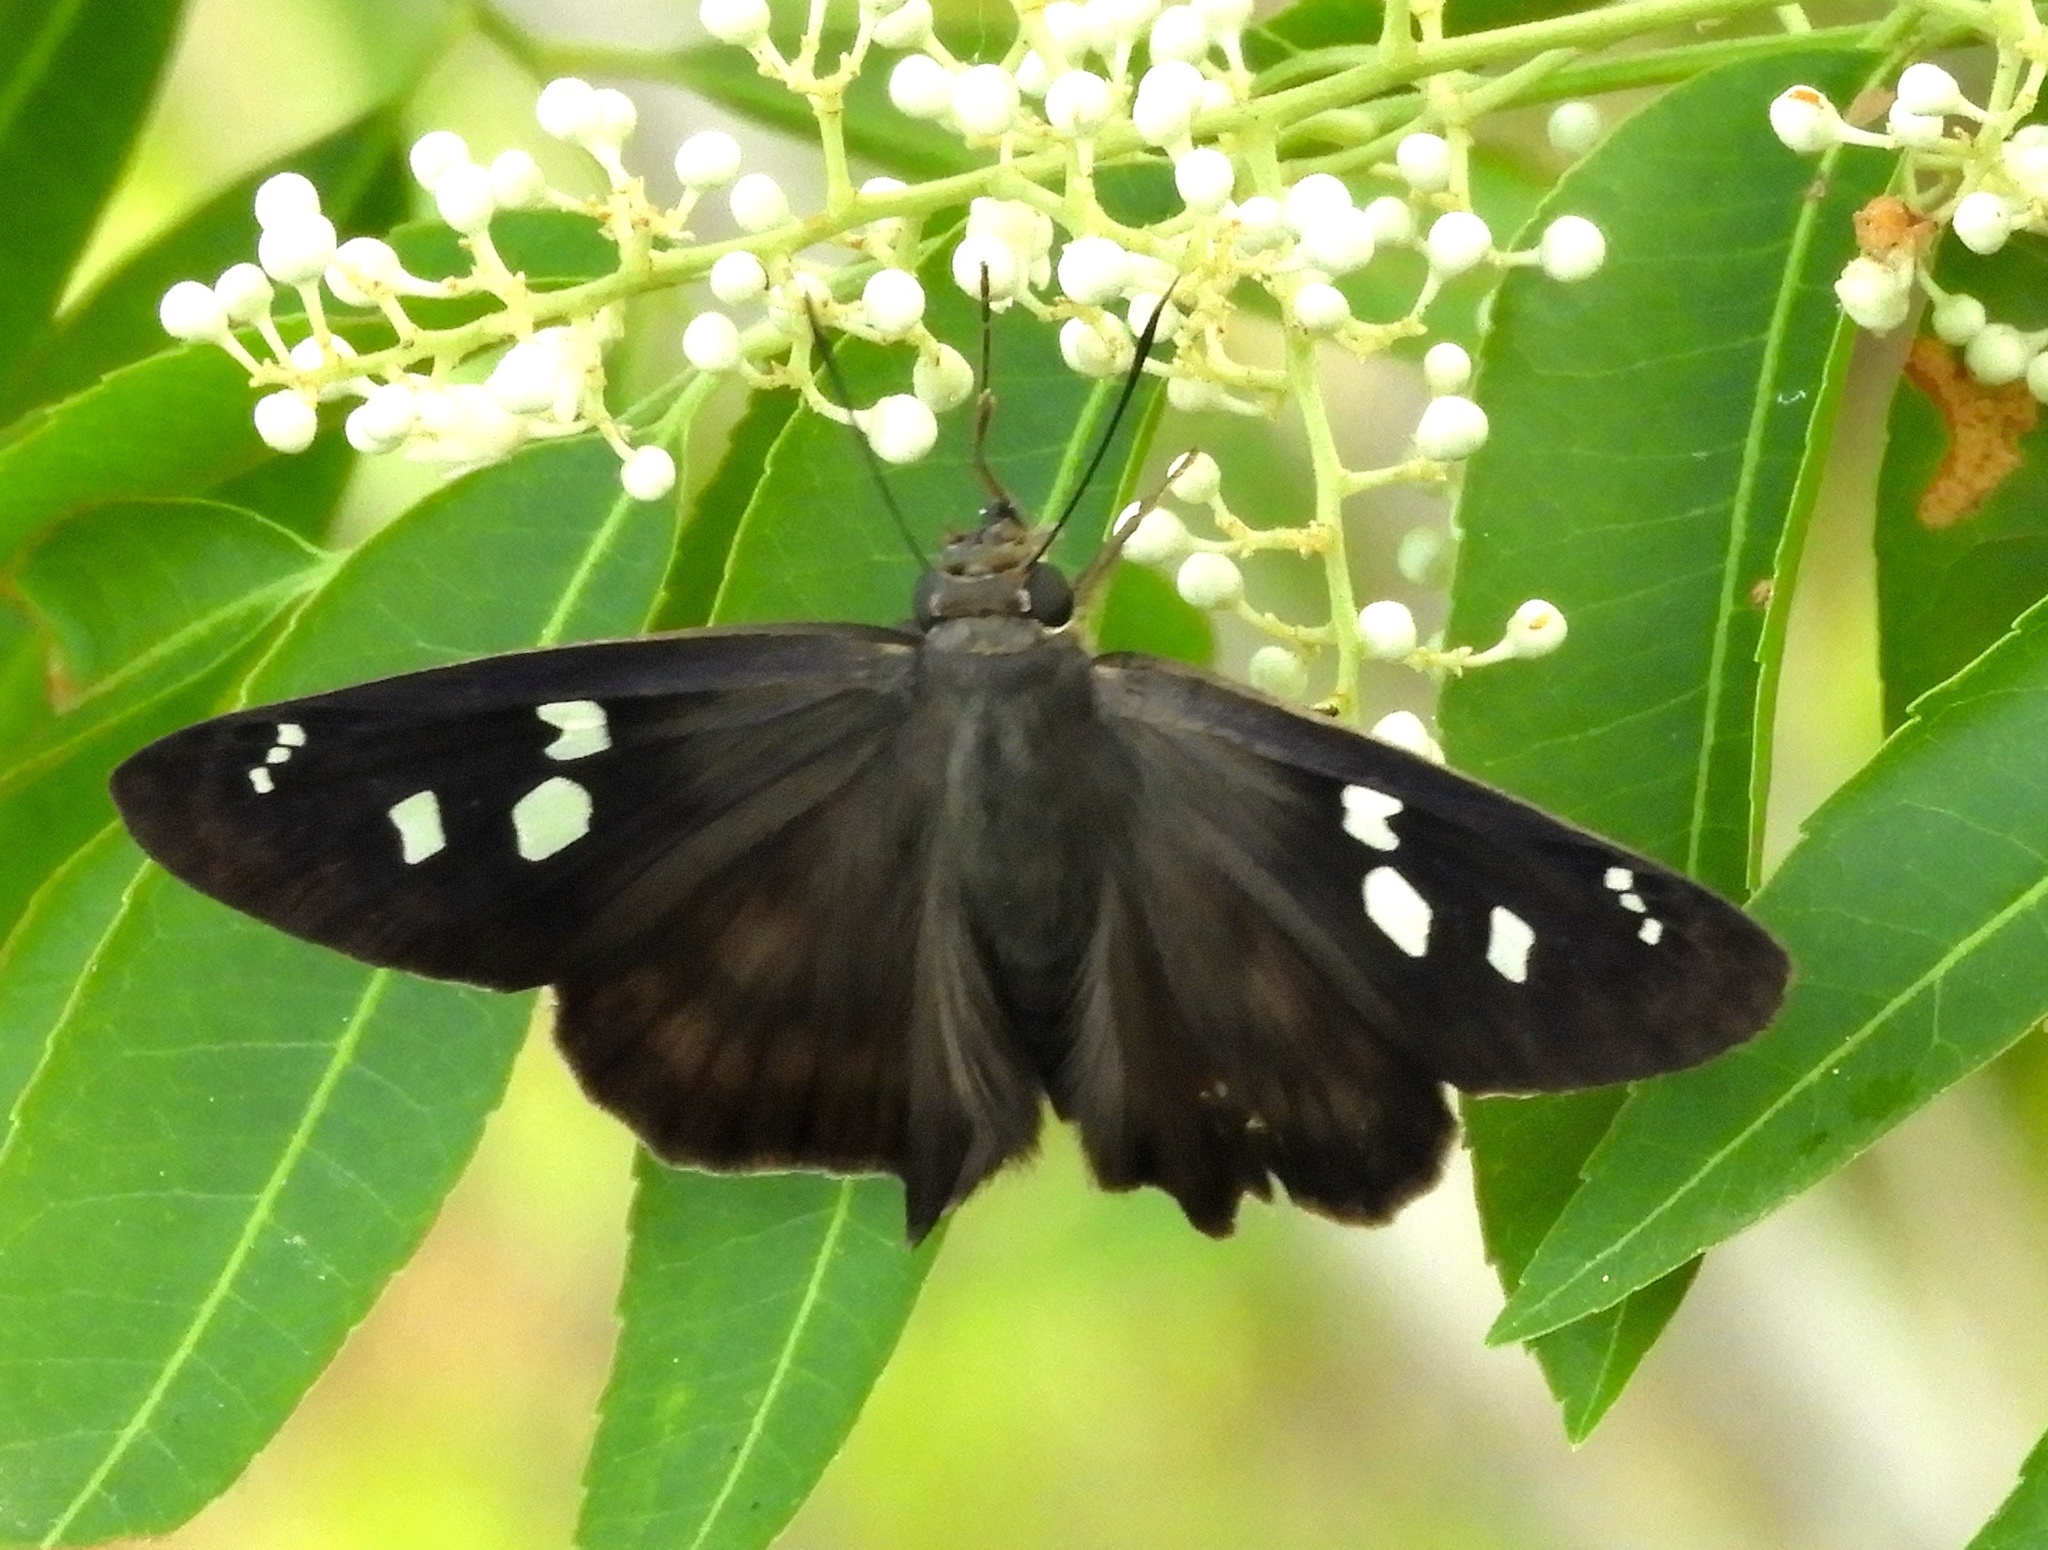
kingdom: Animalia
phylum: Arthropoda
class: Insecta
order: Lepidoptera
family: Hesperiidae
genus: Polygonus
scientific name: Polygonus leo
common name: Hammoch skipper
